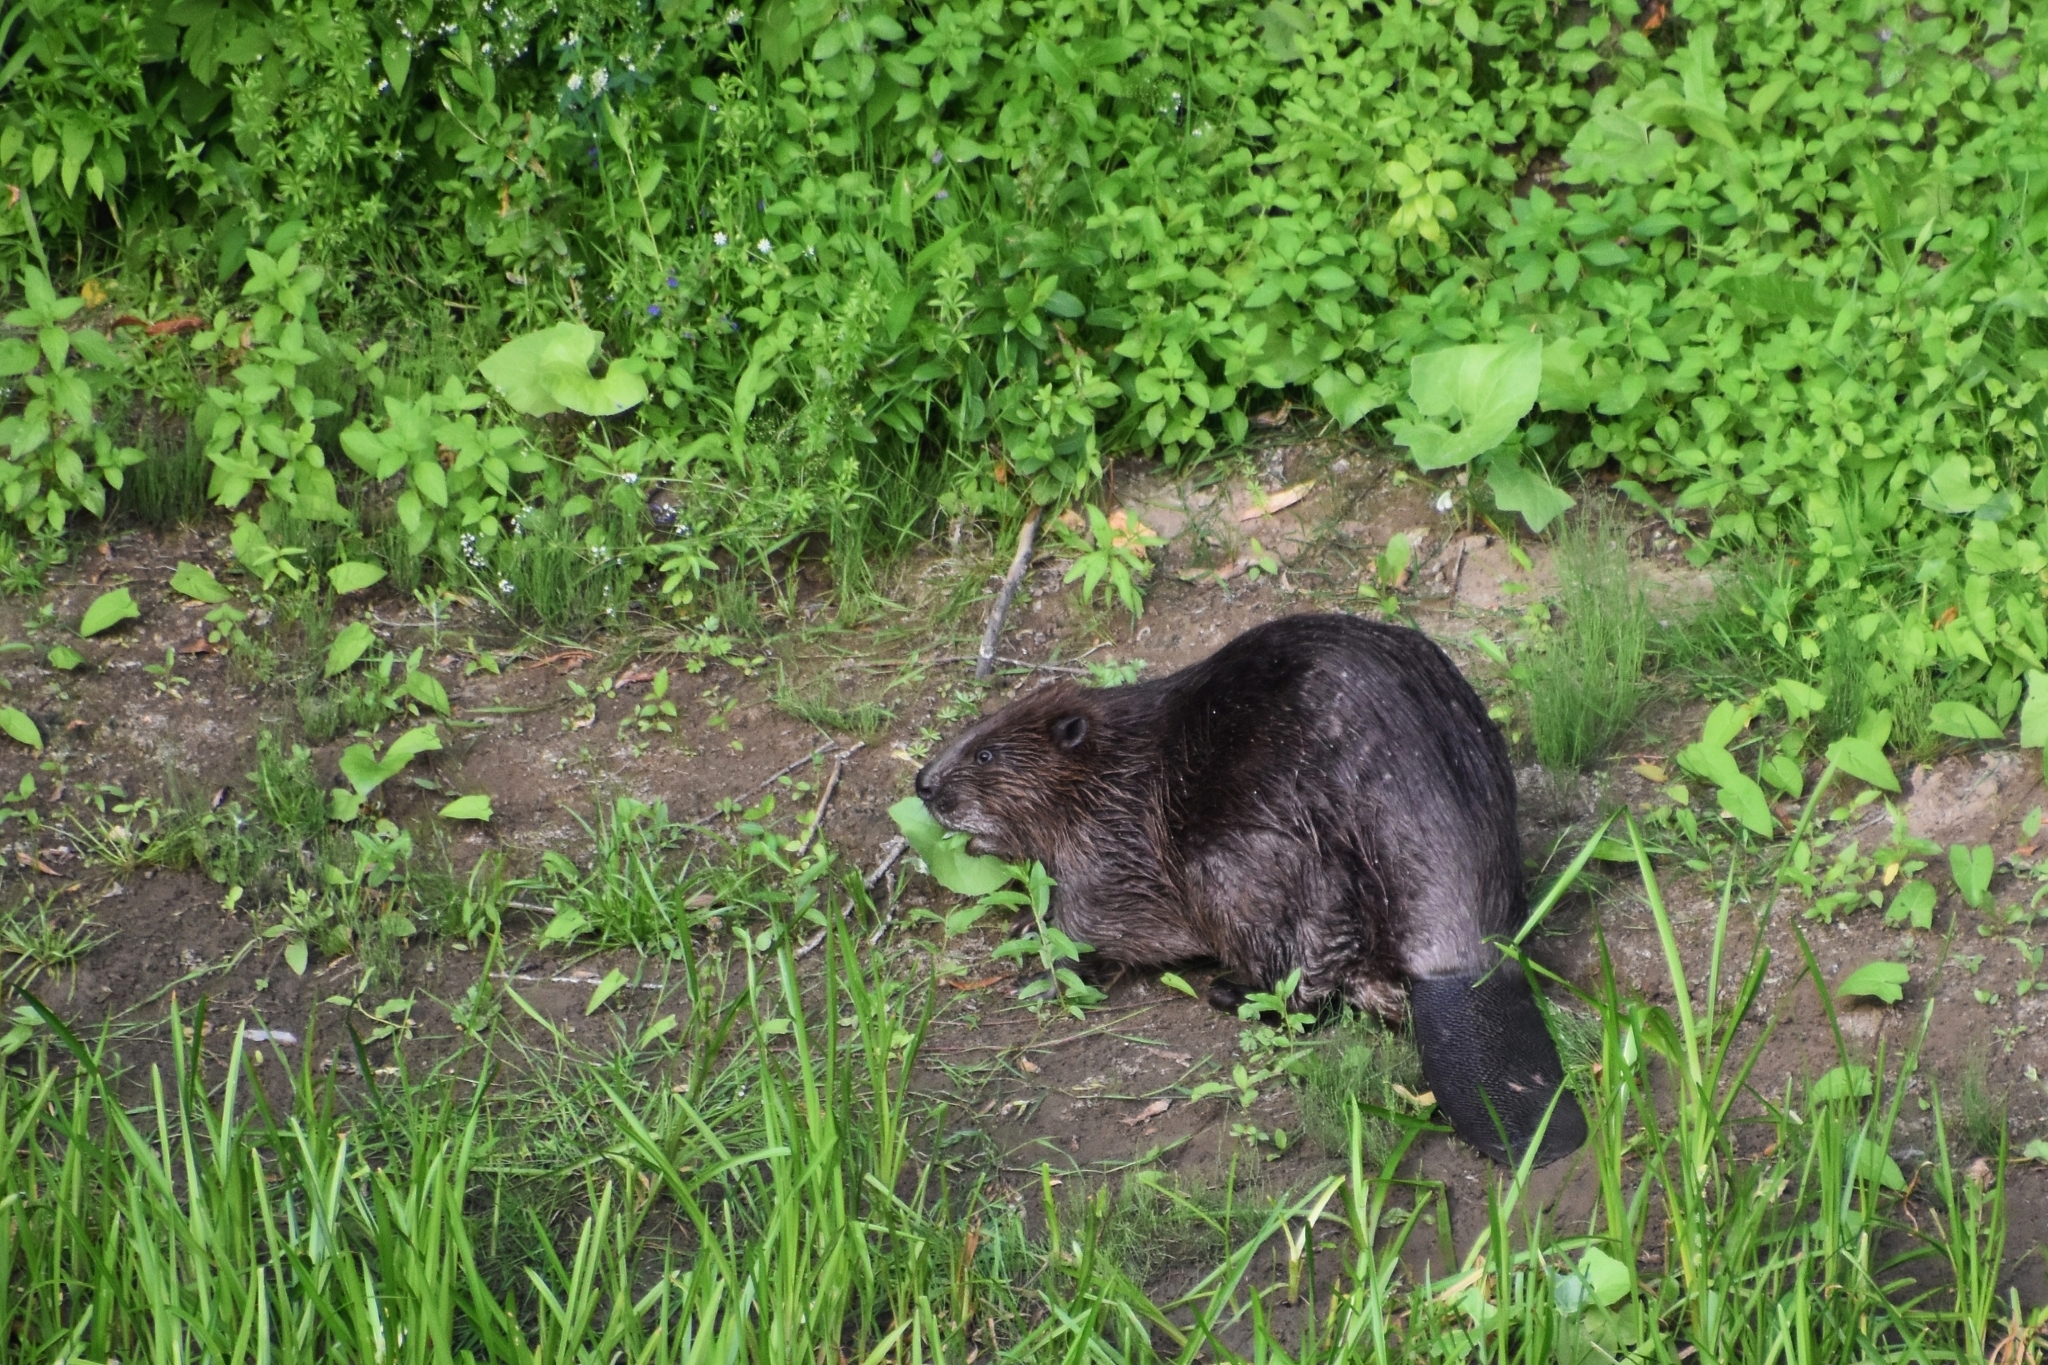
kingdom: Animalia
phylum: Chordata
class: Mammalia
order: Rodentia
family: Castoridae
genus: Castor
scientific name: Castor fiber
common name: Eurasian beaver
